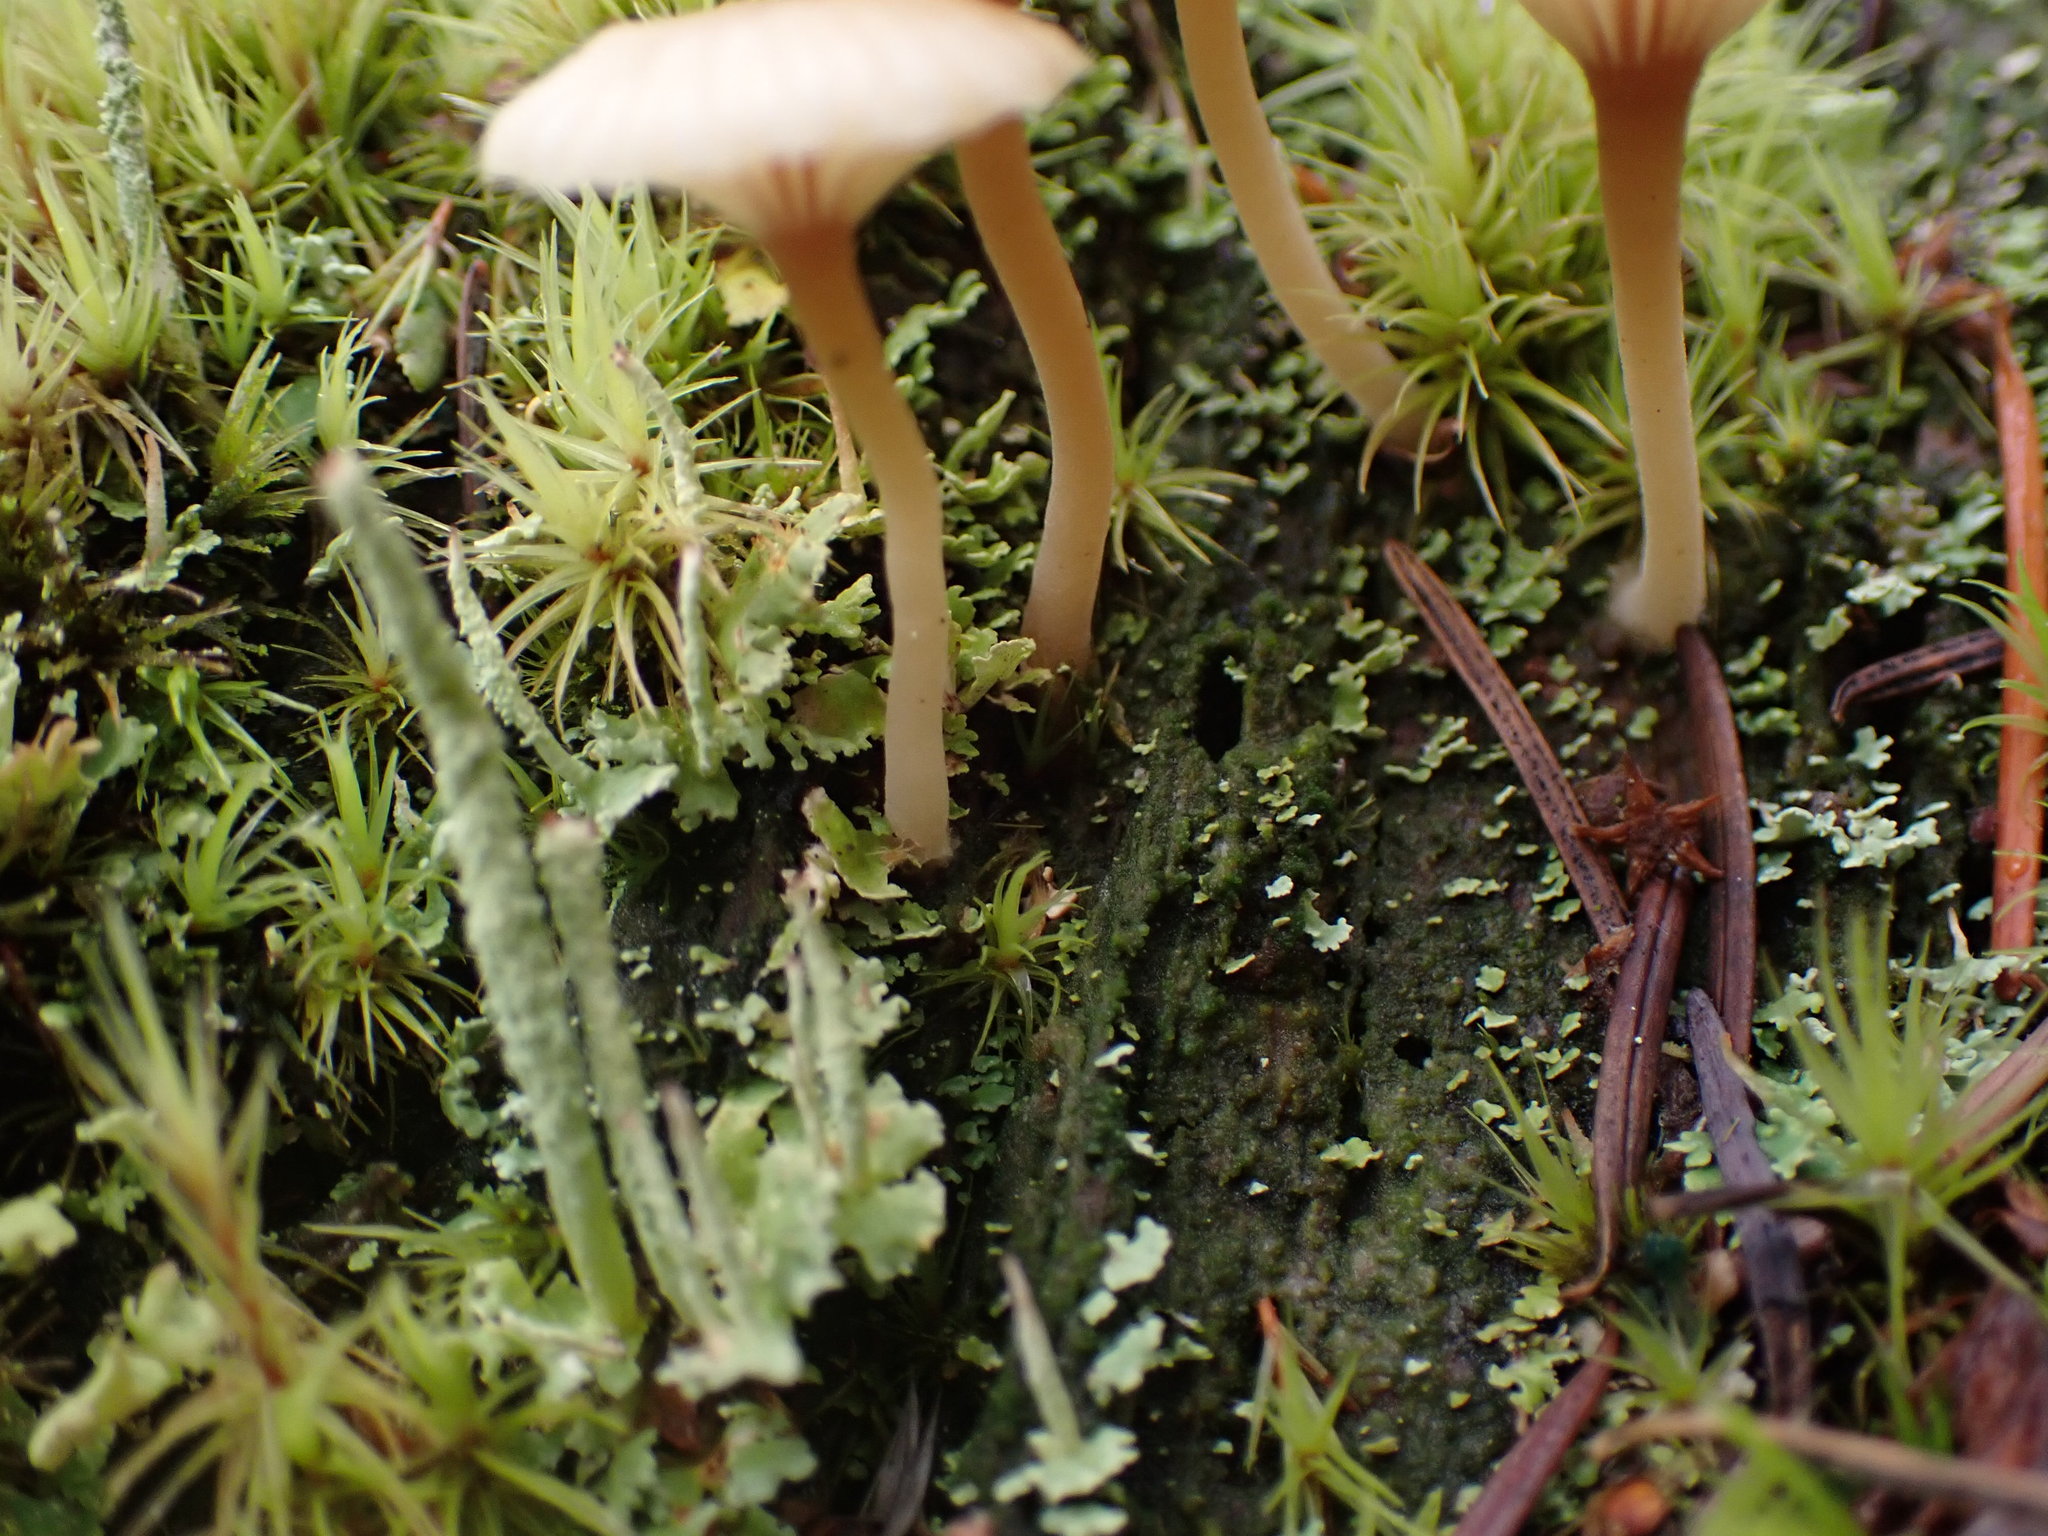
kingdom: Fungi
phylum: Basidiomycota
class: Agaricomycetes
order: Agaricales
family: Hygrophoraceae
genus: Lichenomphalia
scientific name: Lichenomphalia
